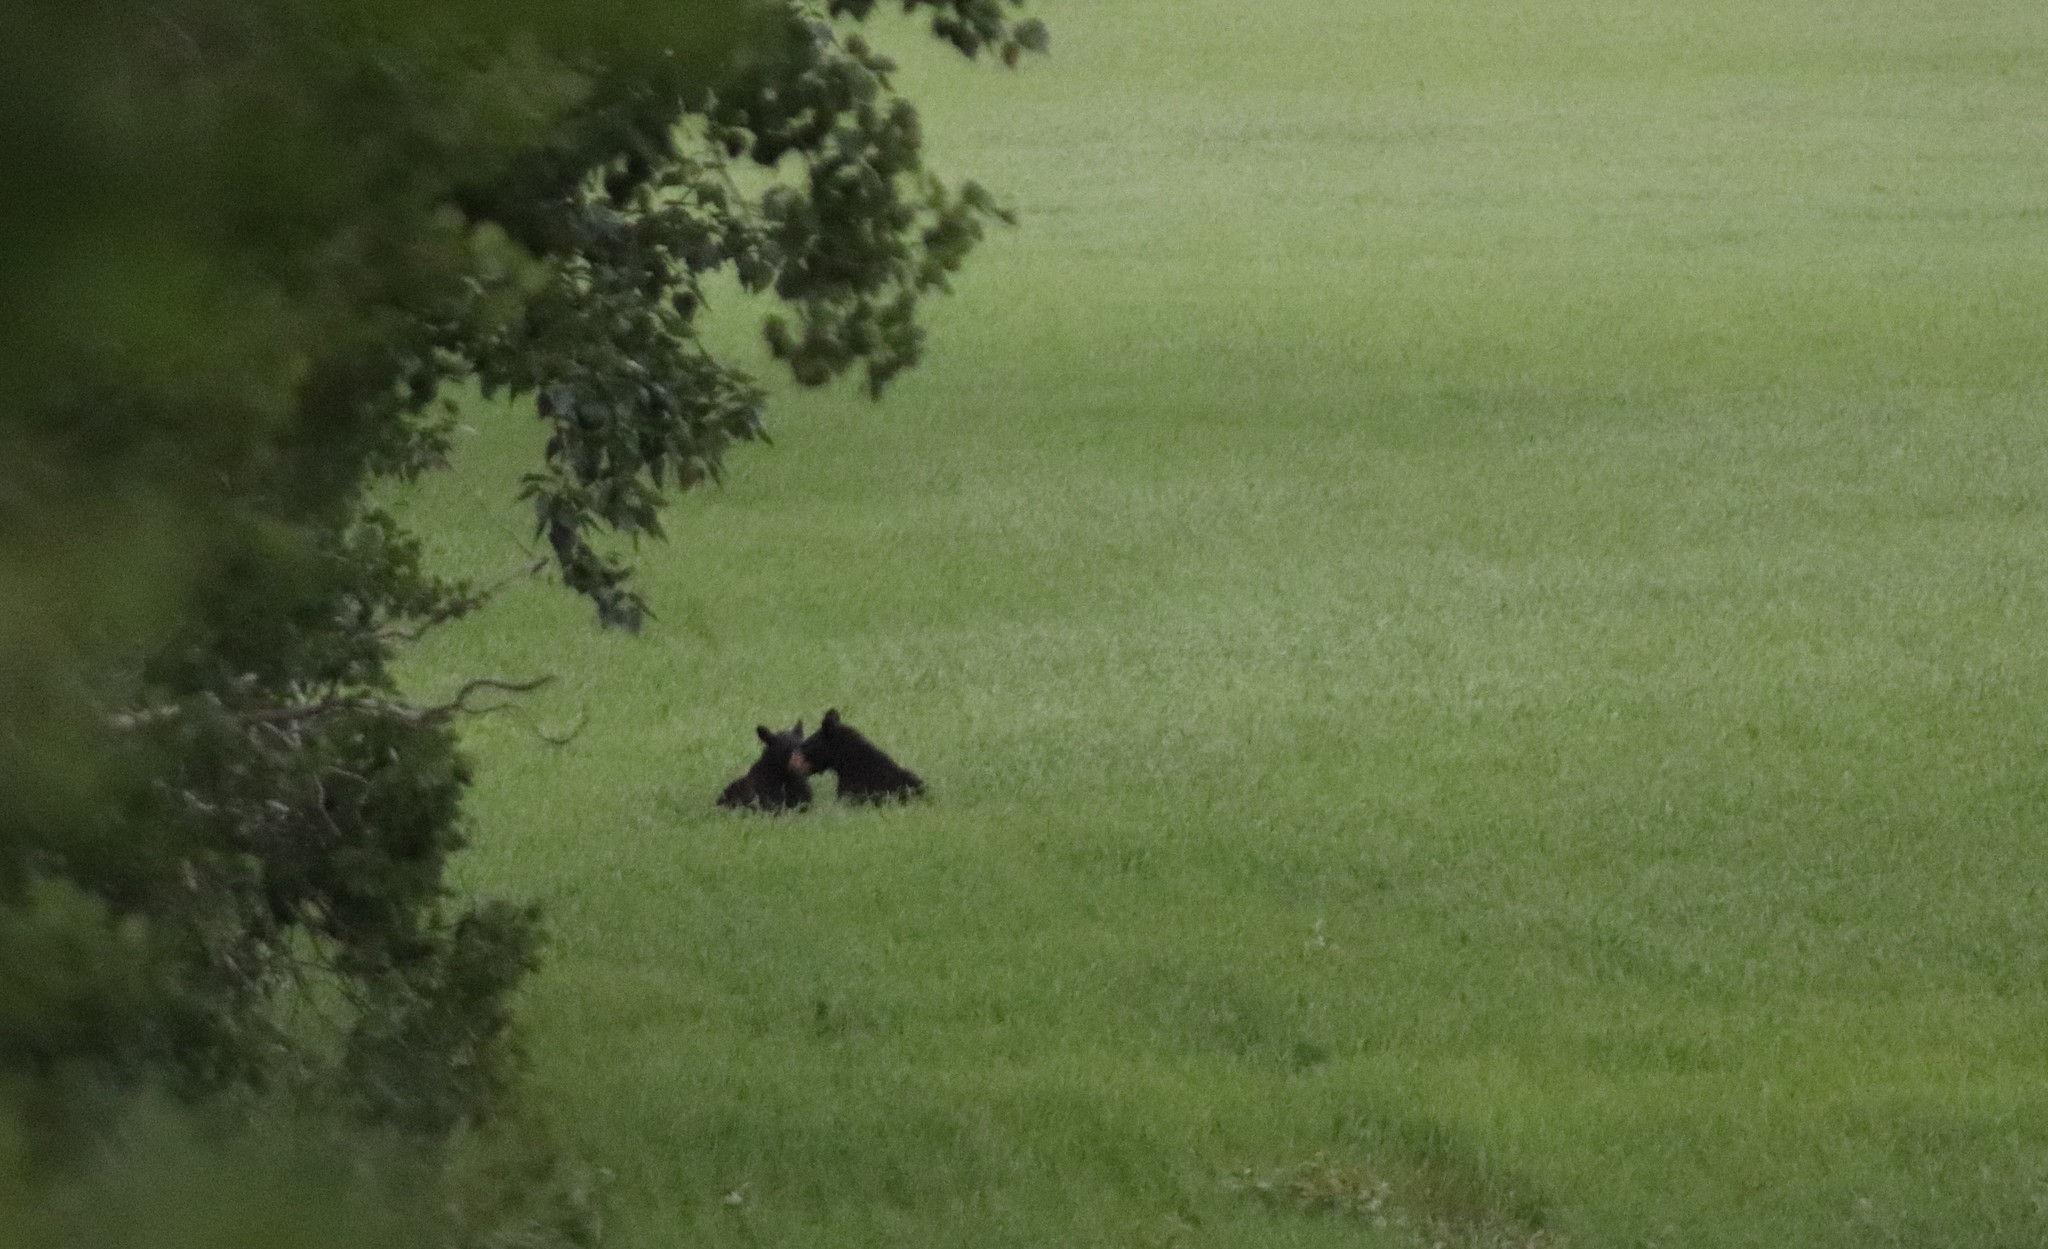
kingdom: Animalia
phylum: Chordata
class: Mammalia
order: Carnivora
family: Ursidae
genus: Ursus
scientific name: Ursus americanus
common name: American black bear
